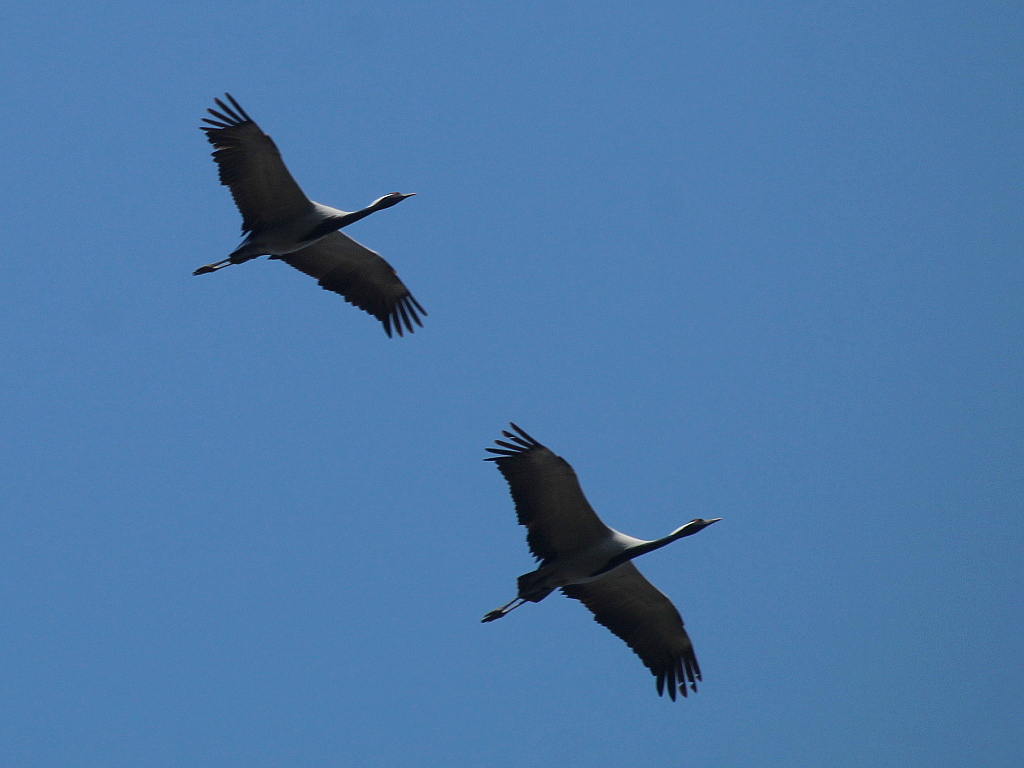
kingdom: Animalia
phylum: Chordata
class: Aves
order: Gruiformes
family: Gruidae
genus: Anthropoides
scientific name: Anthropoides virgo
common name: Demoiselle crane
